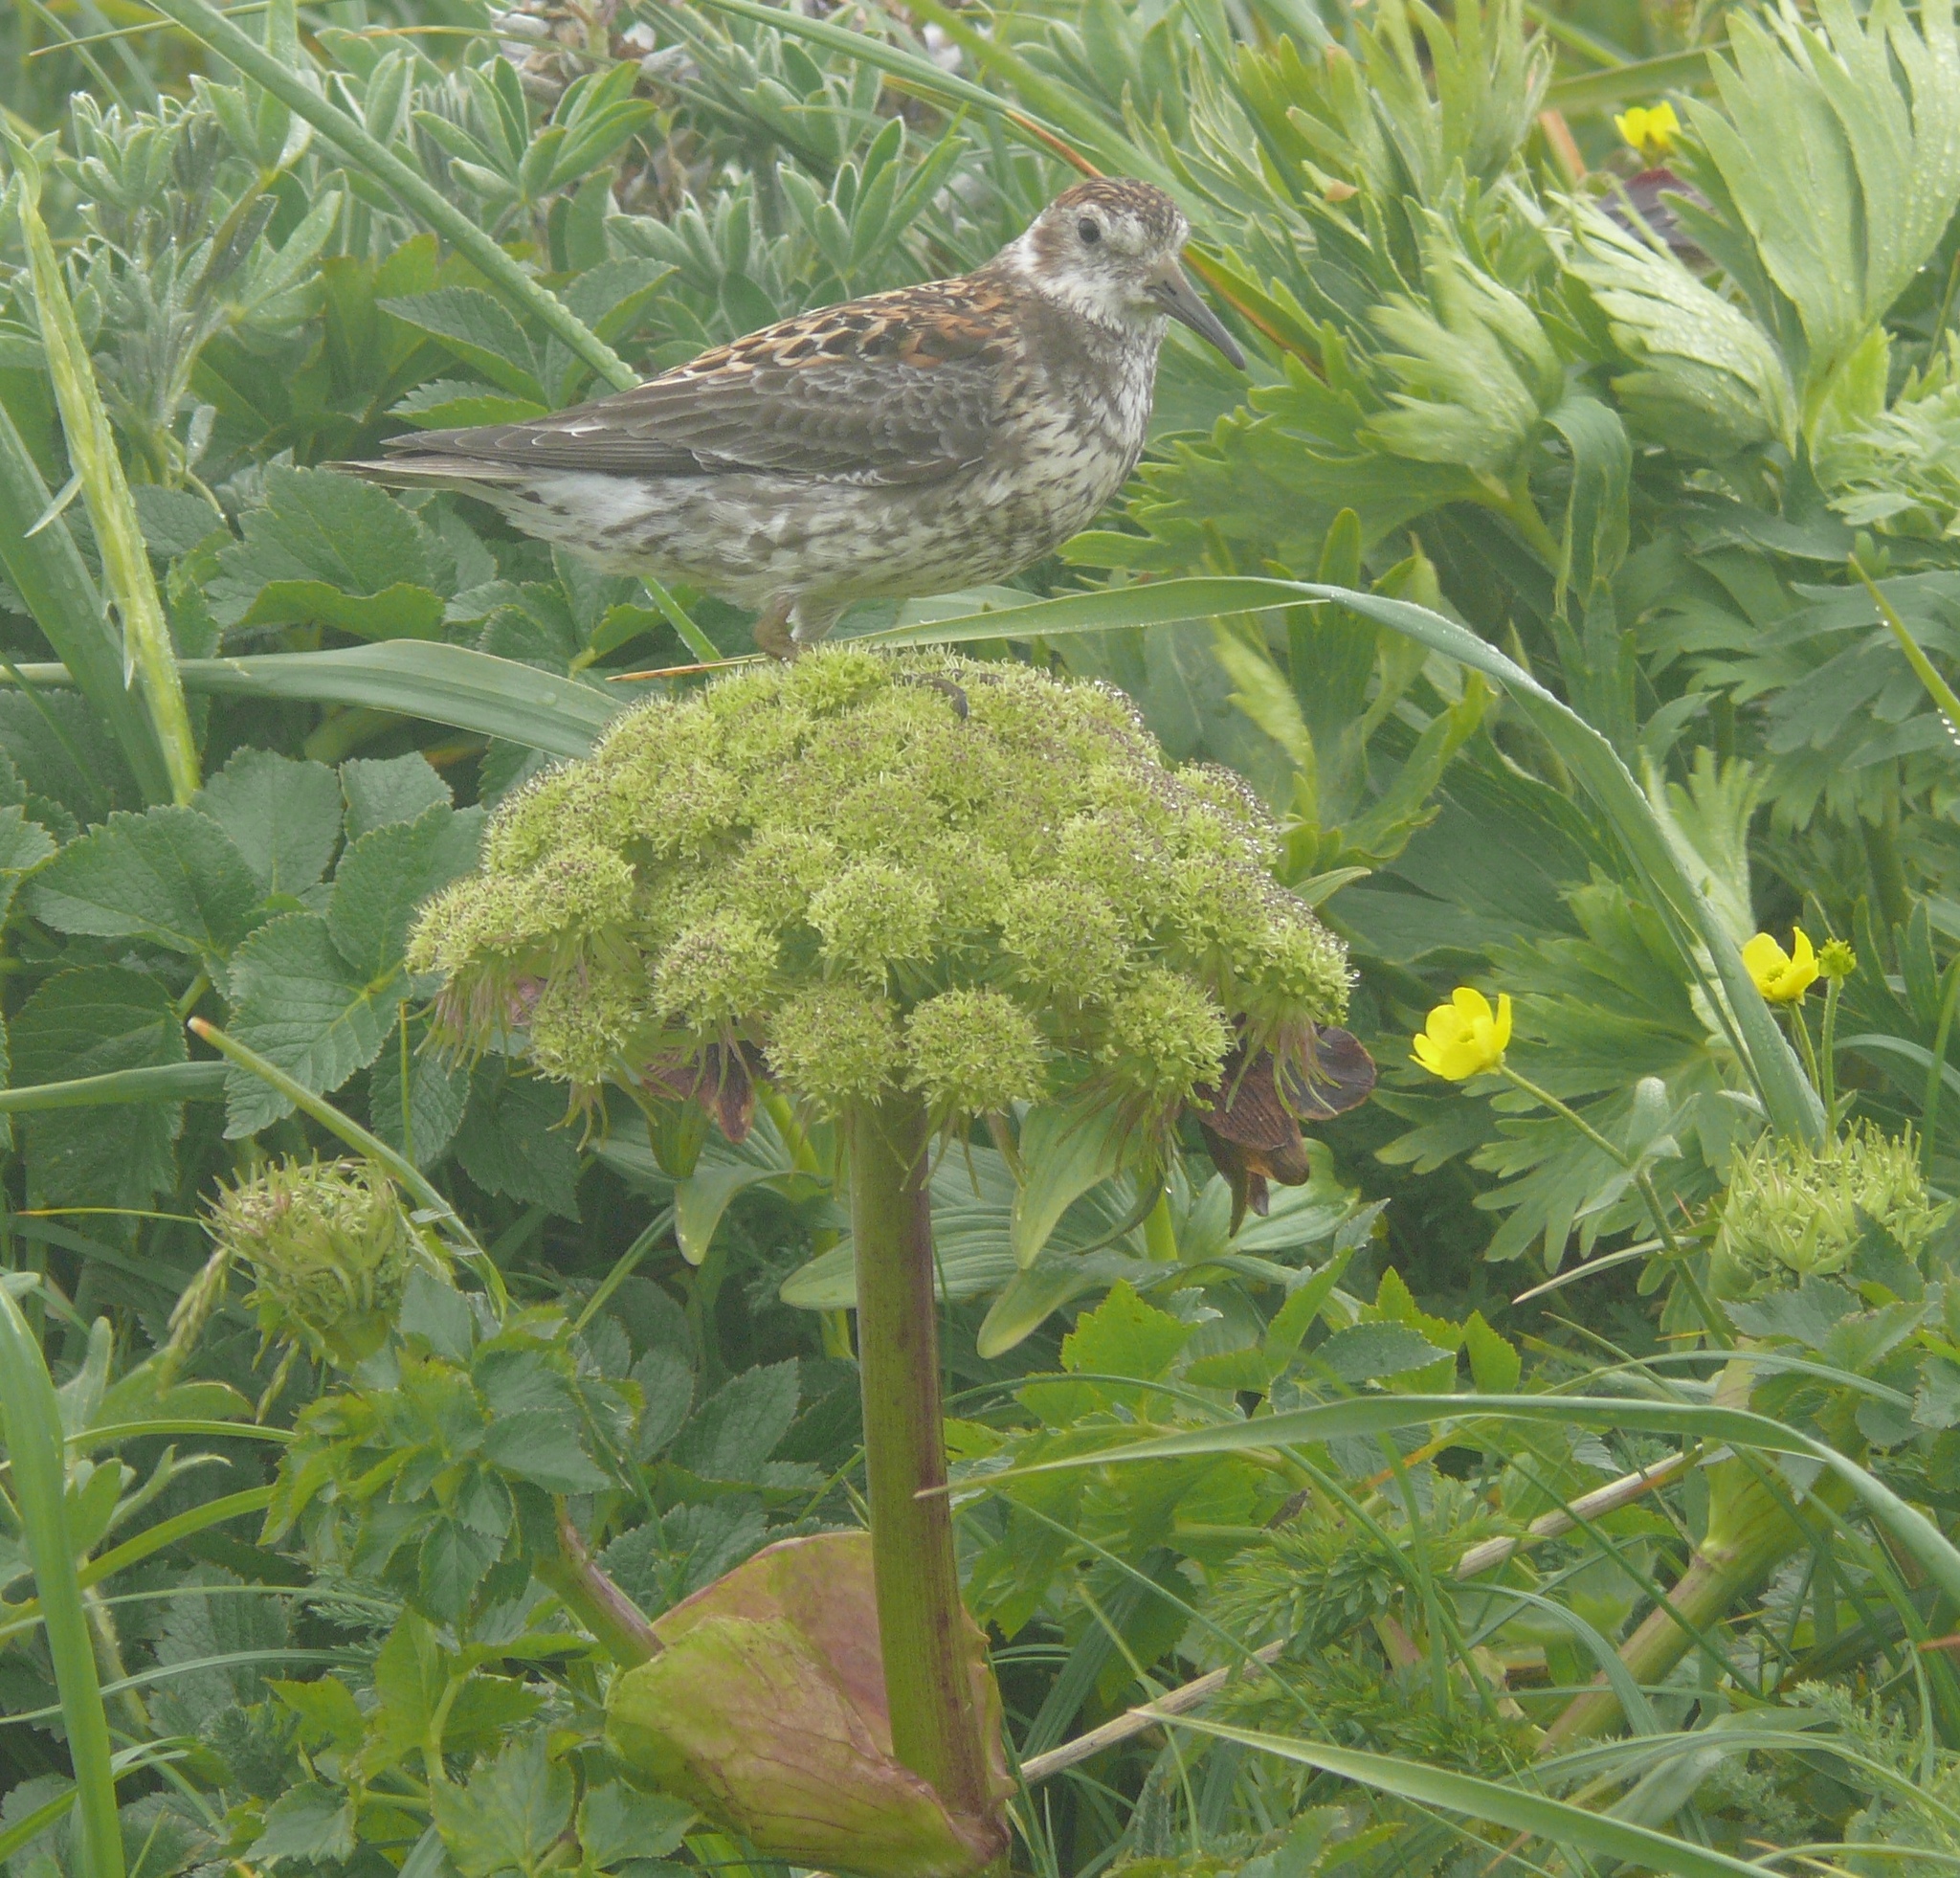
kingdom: Plantae
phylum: Tracheophyta
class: Magnoliopsida
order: Apiales
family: Apiaceae
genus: Angelica
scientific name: Angelica lucida
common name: Seabeach angelica
